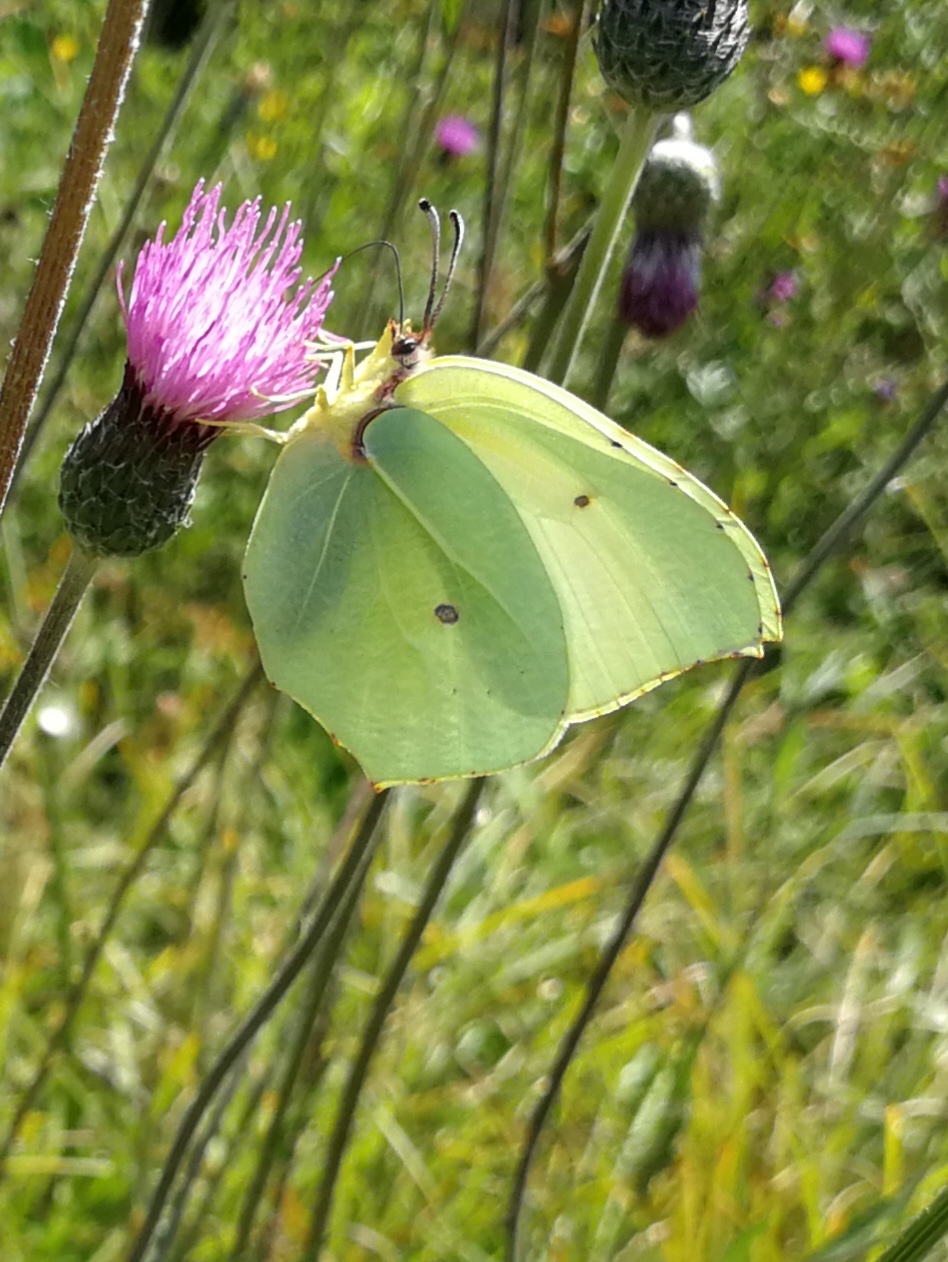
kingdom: Animalia
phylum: Arthropoda
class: Insecta
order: Lepidoptera
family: Pieridae
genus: Gonepteryx
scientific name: Gonepteryx rhamni
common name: Brimstone
